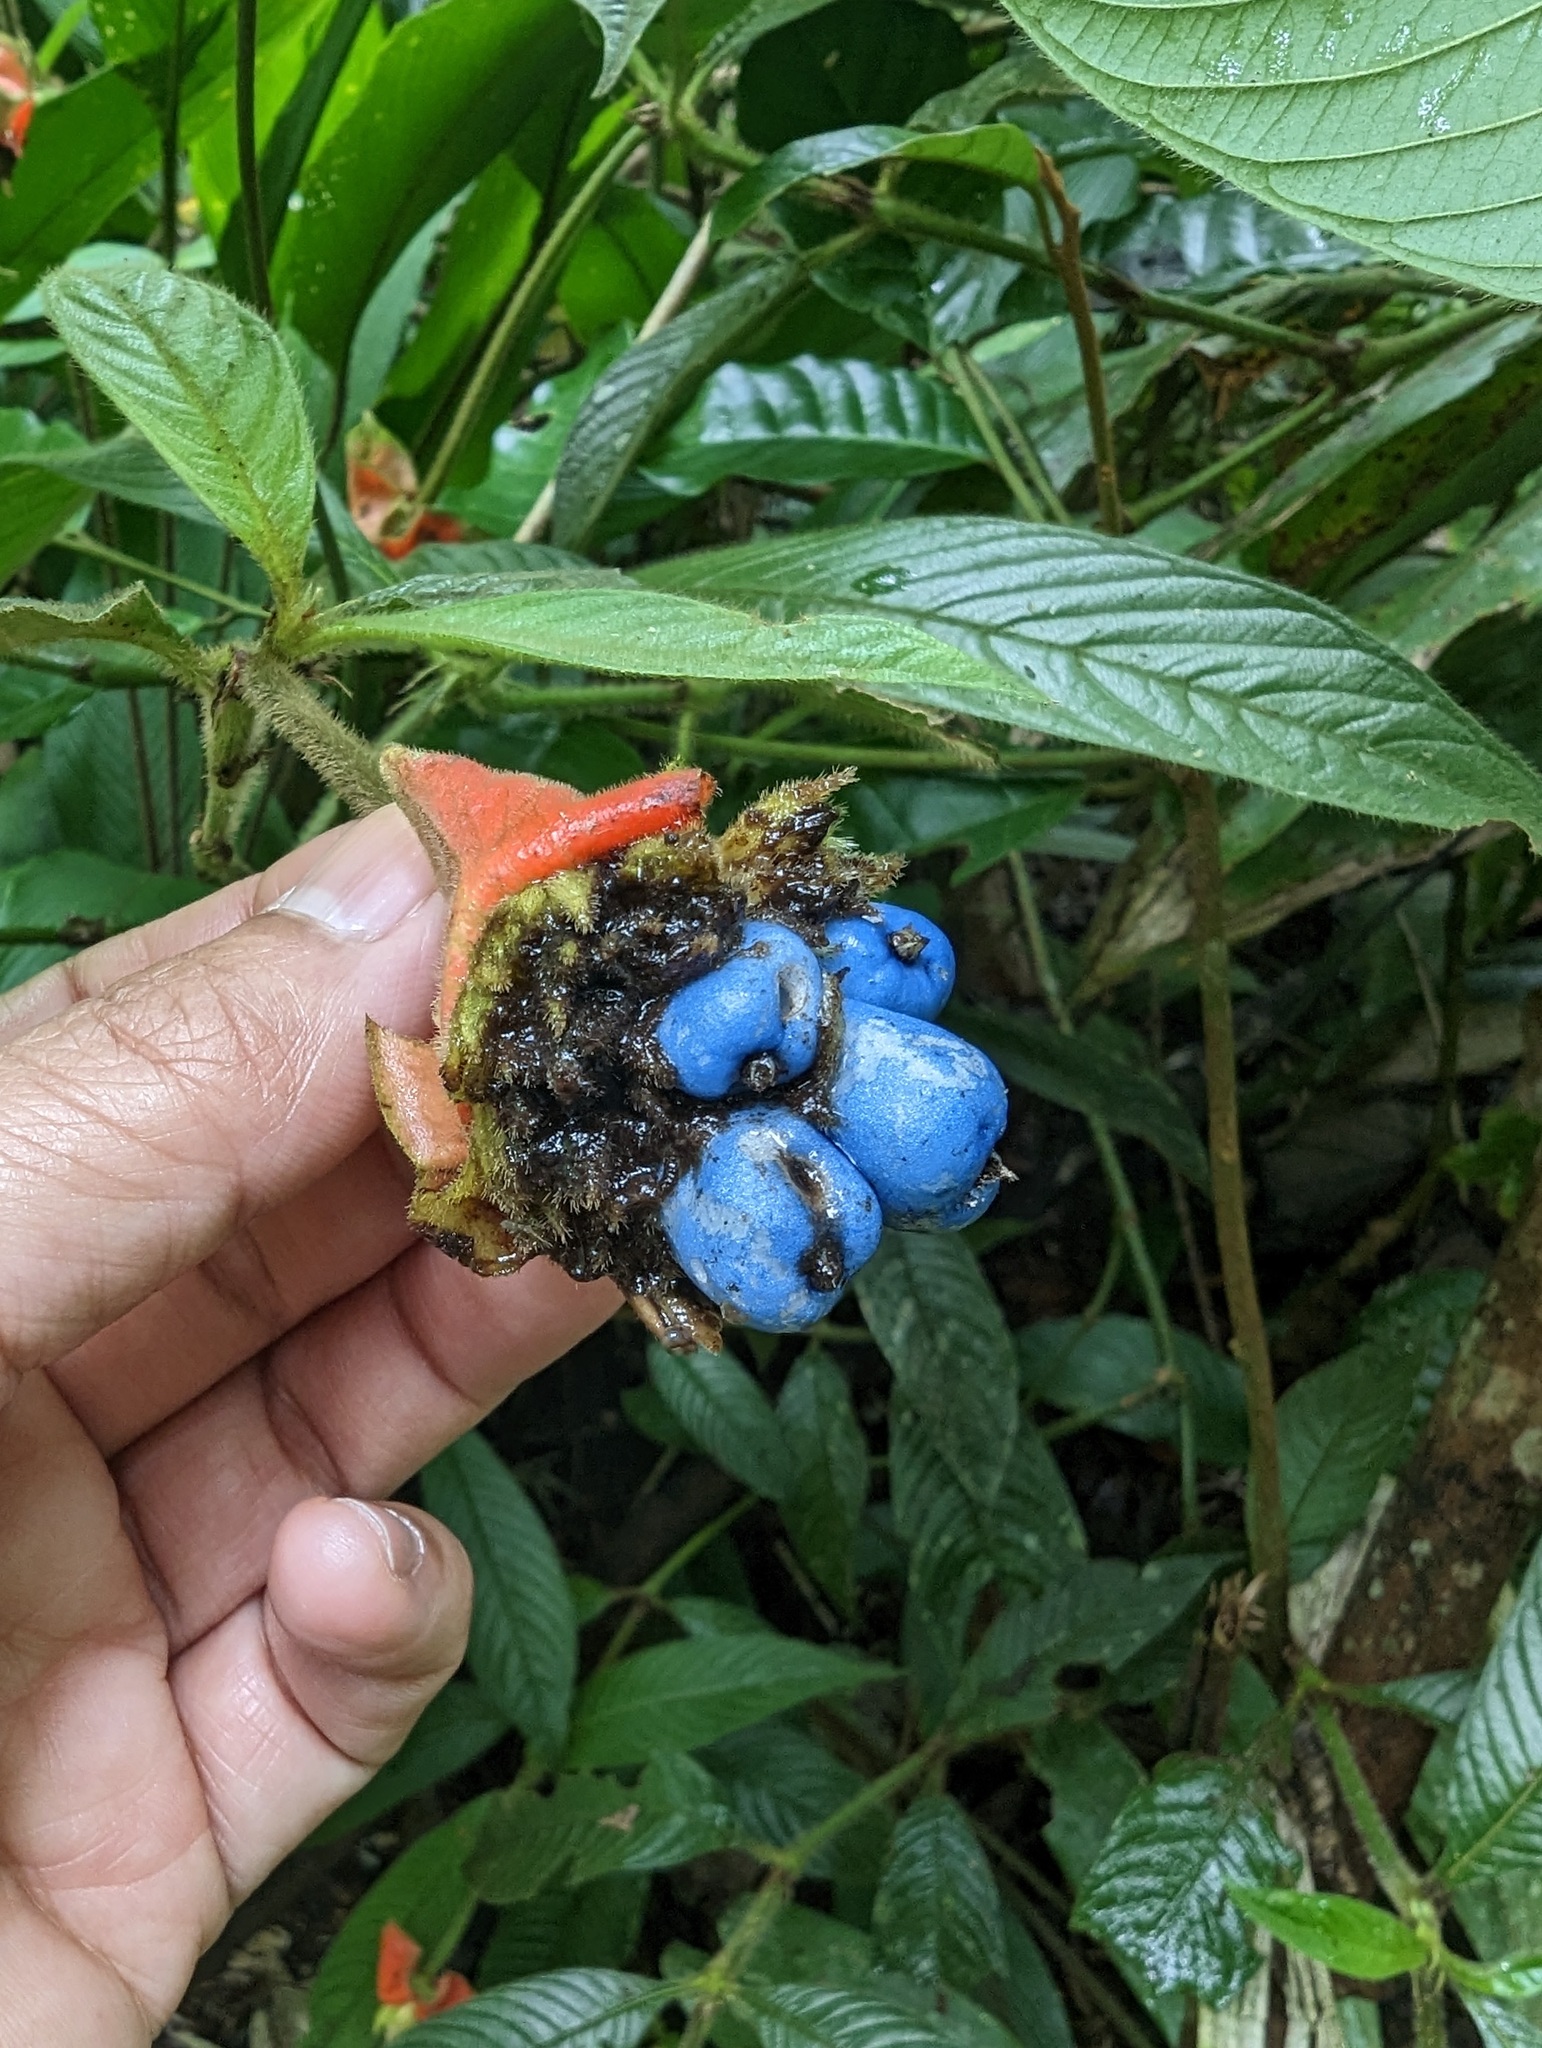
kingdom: Plantae
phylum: Tracheophyta
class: Magnoliopsida
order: Gentianales
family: Rubiaceae
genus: Palicourea
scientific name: Palicourea tomentosa
